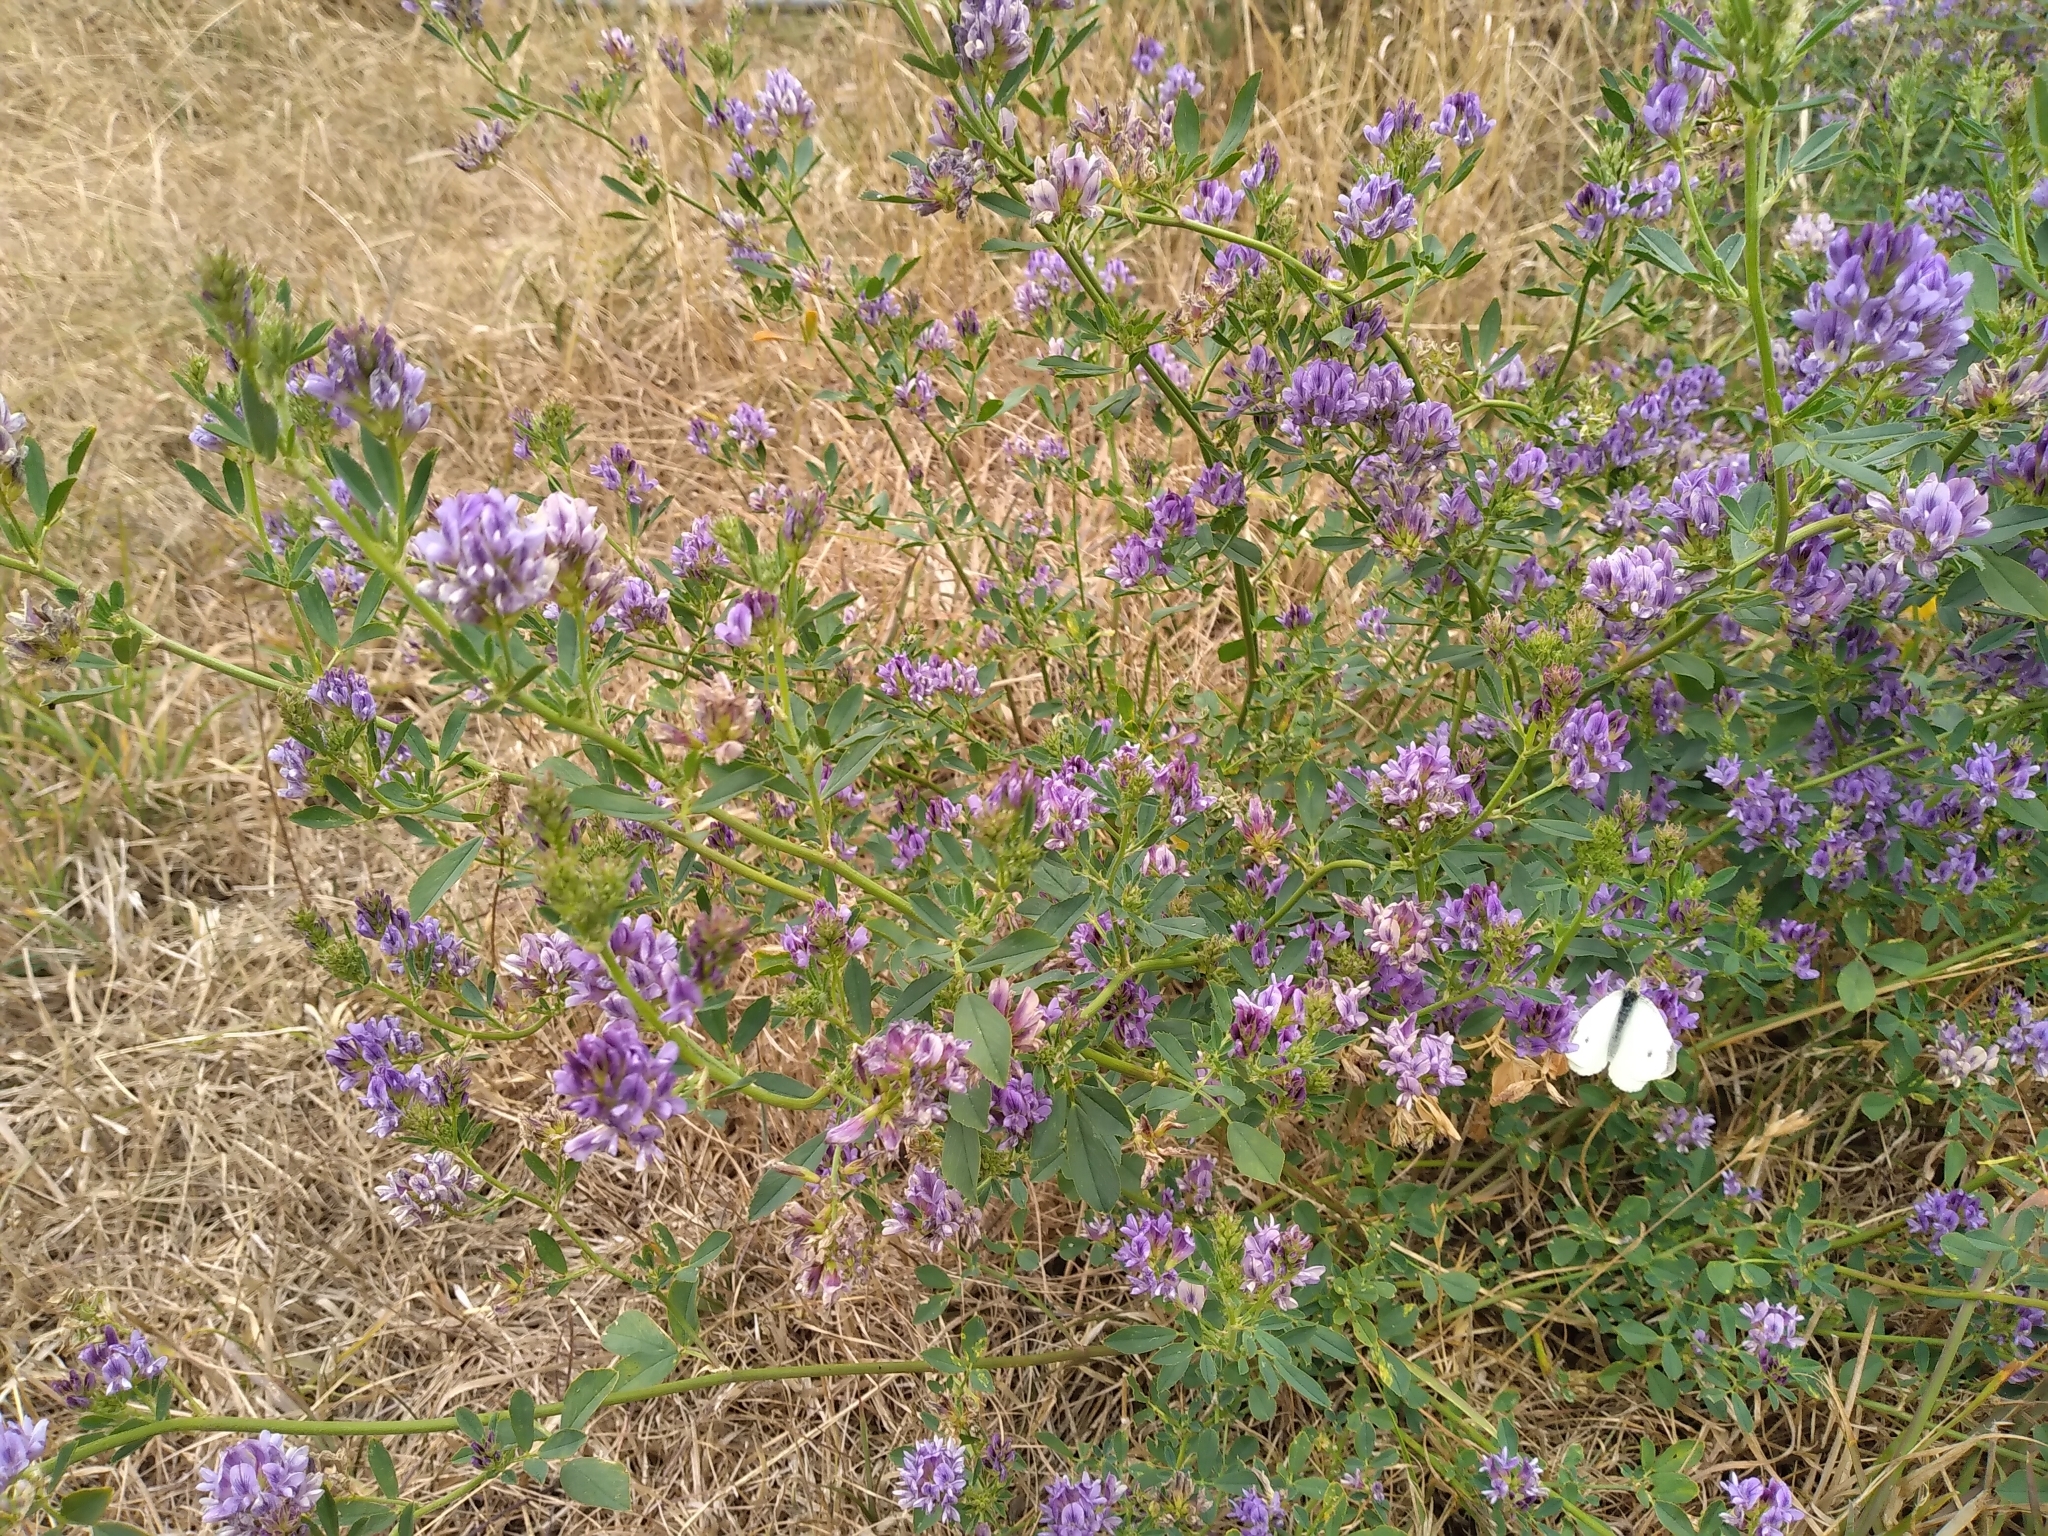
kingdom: Plantae
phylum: Tracheophyta
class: Magnoliopsida
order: Fabales
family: Fabaceae
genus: Medicago
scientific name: Medicago sativa
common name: Alfalfa
